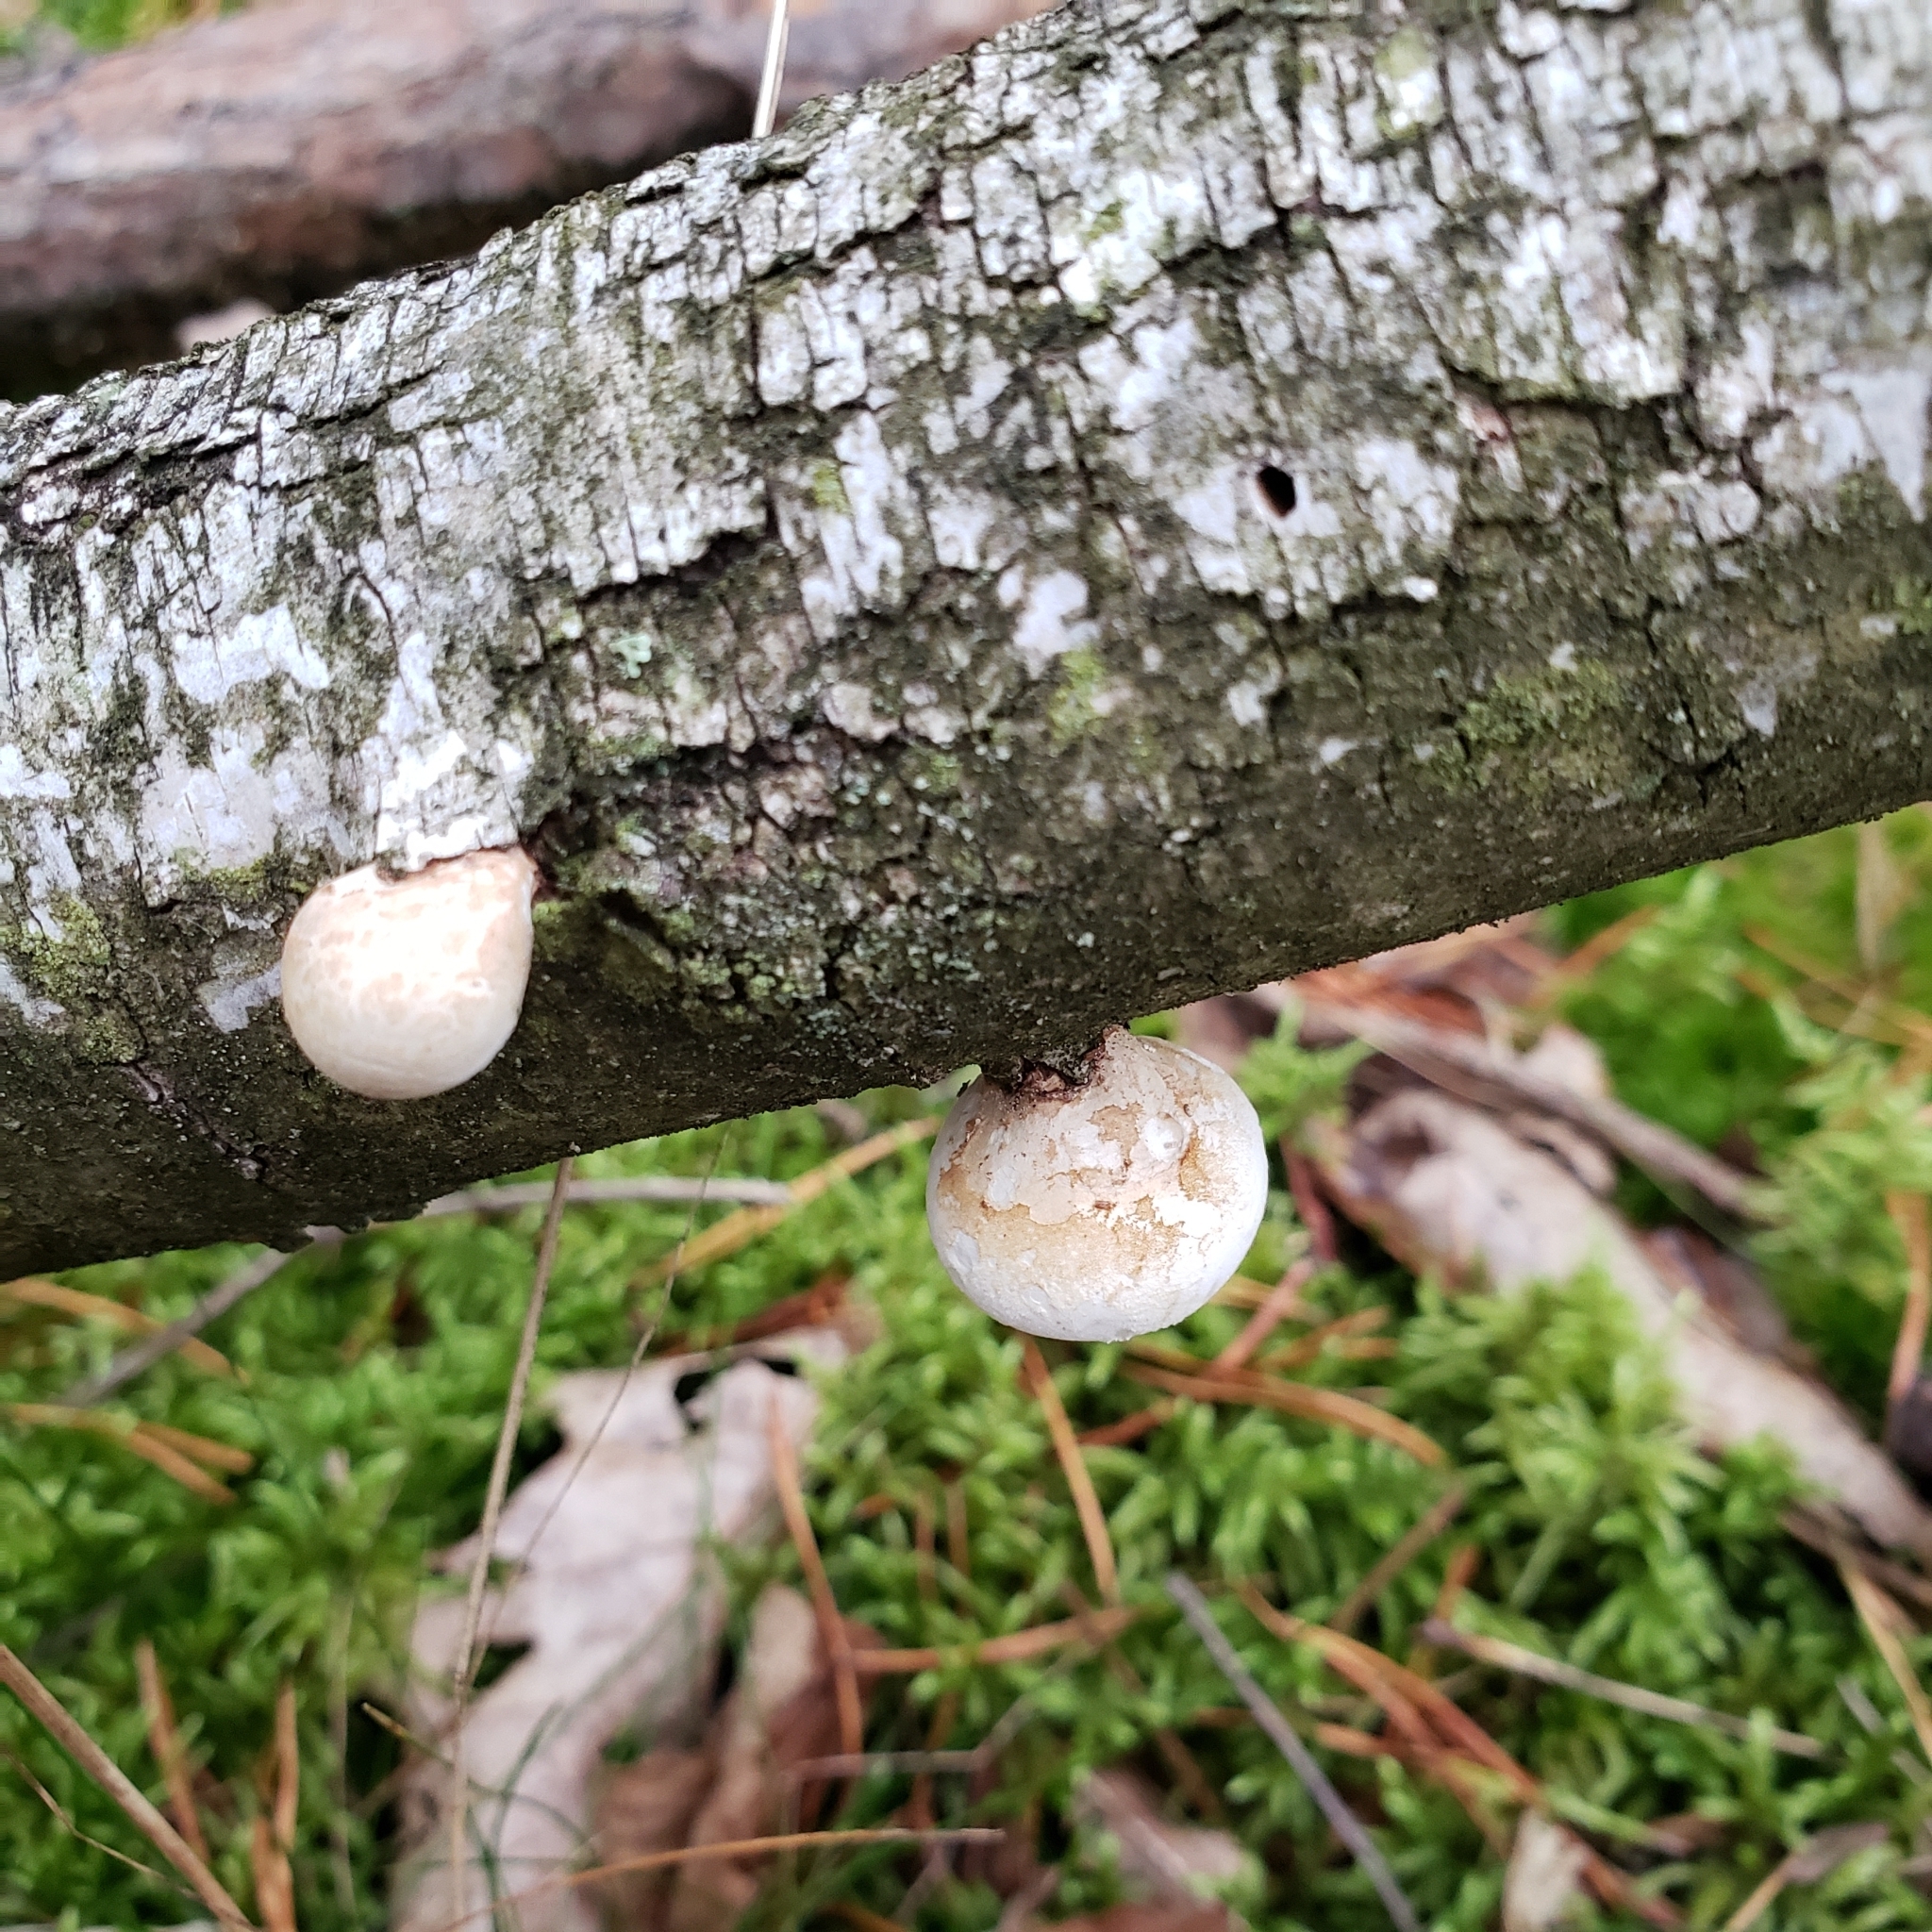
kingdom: Fungi
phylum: Basidiomycota
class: Agaricomycetes
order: Polyporales
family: Fomitopsidaceae
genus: Fomitopsis
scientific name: Fomitopsis betulina
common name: Birch polypore
